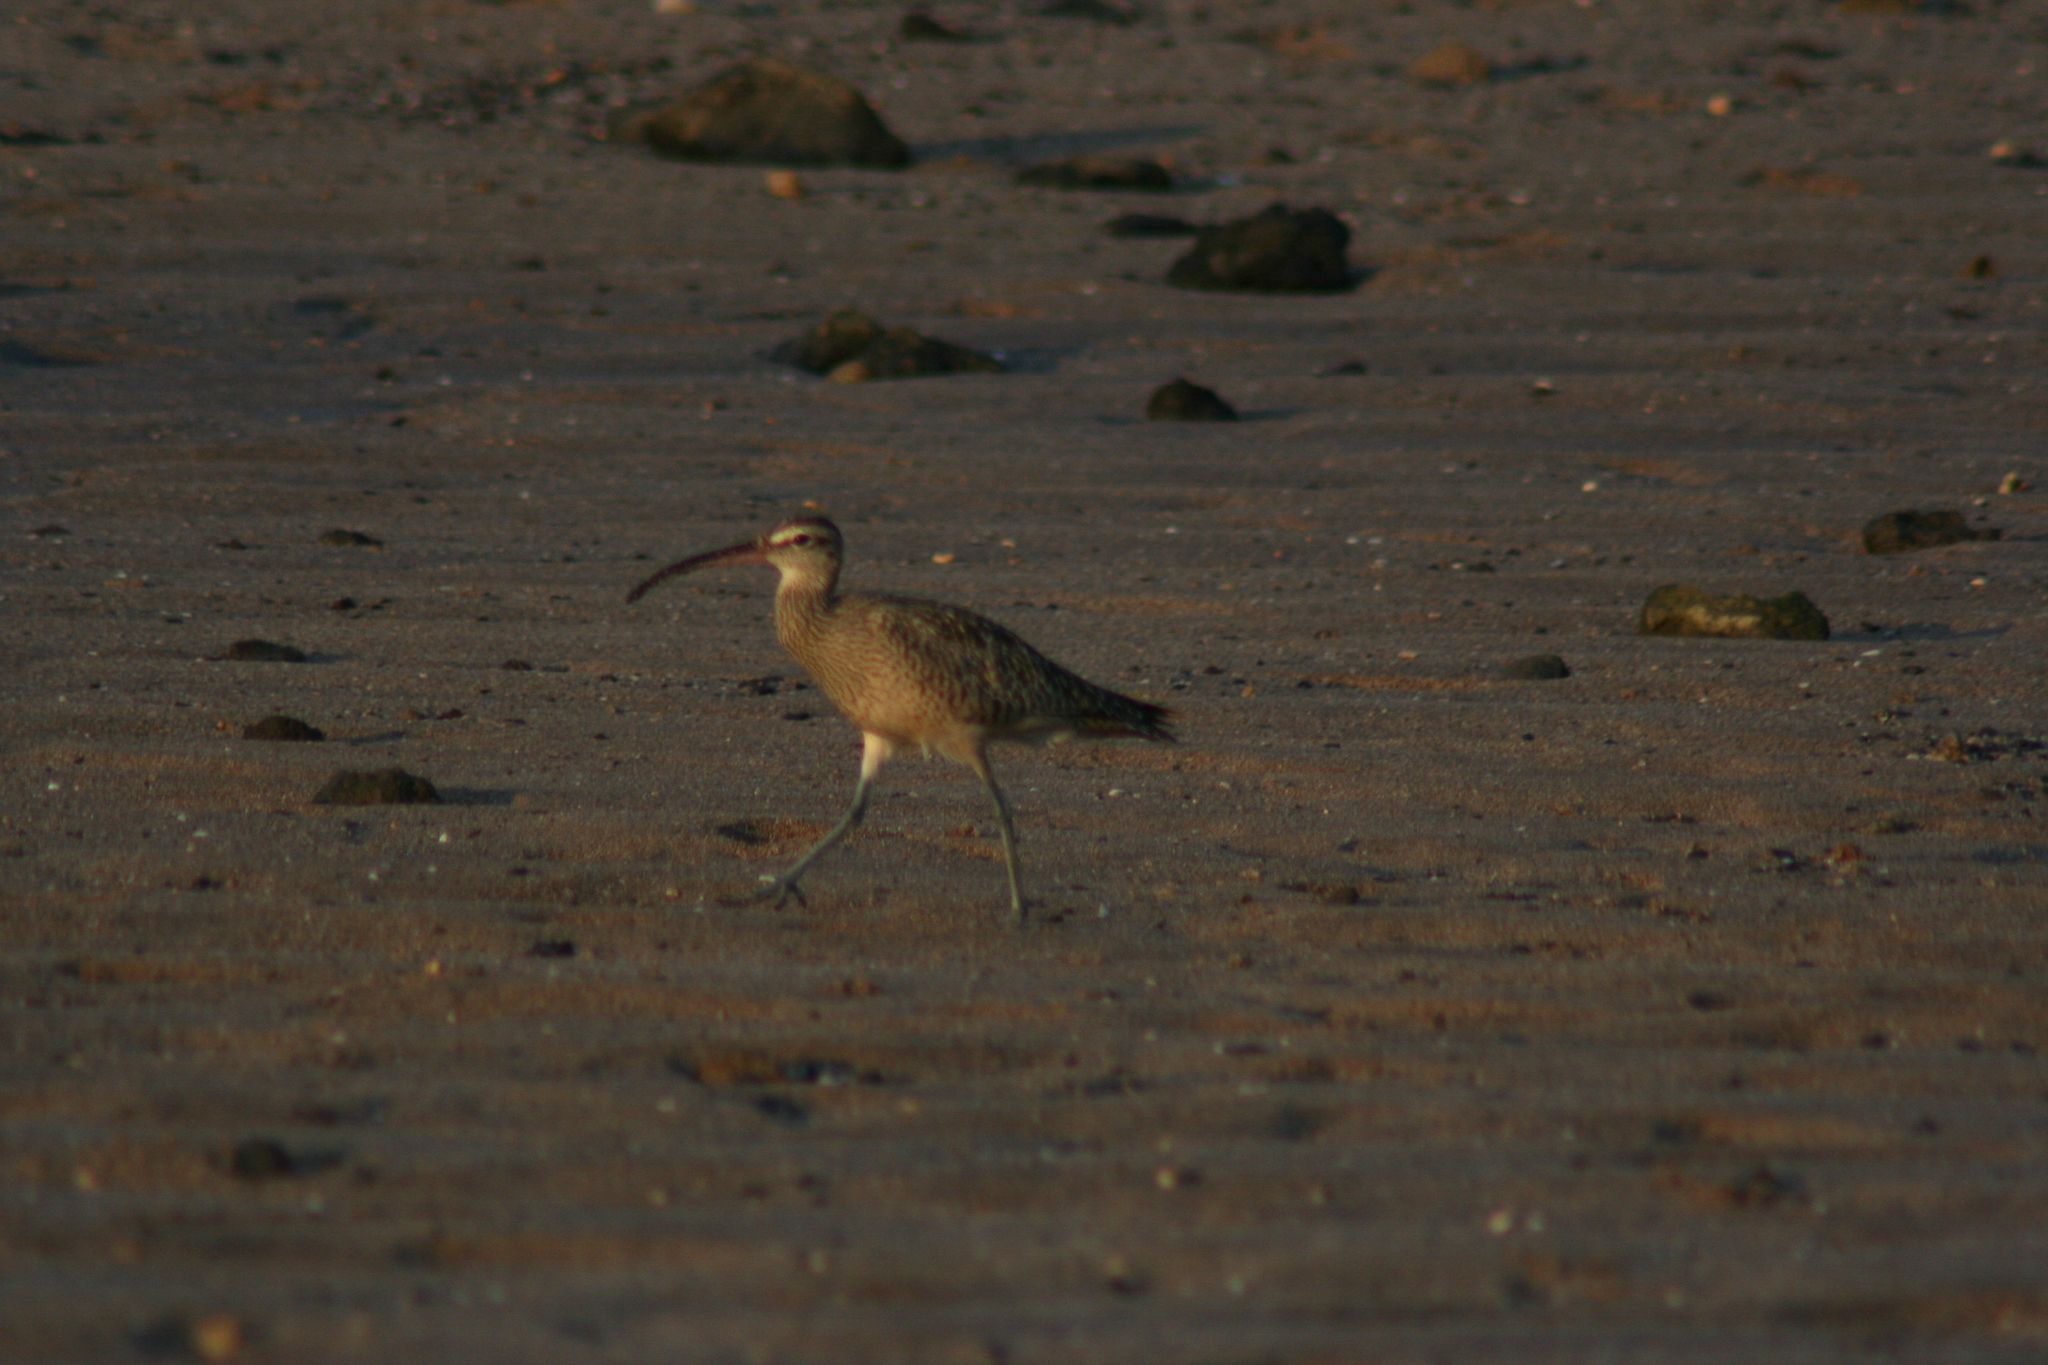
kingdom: Animalia
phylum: Chordata
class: Aves
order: Charadriiformes
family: Scolopacidae
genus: Numenius
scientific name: Numenius phaeopus
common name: Whimbrel
